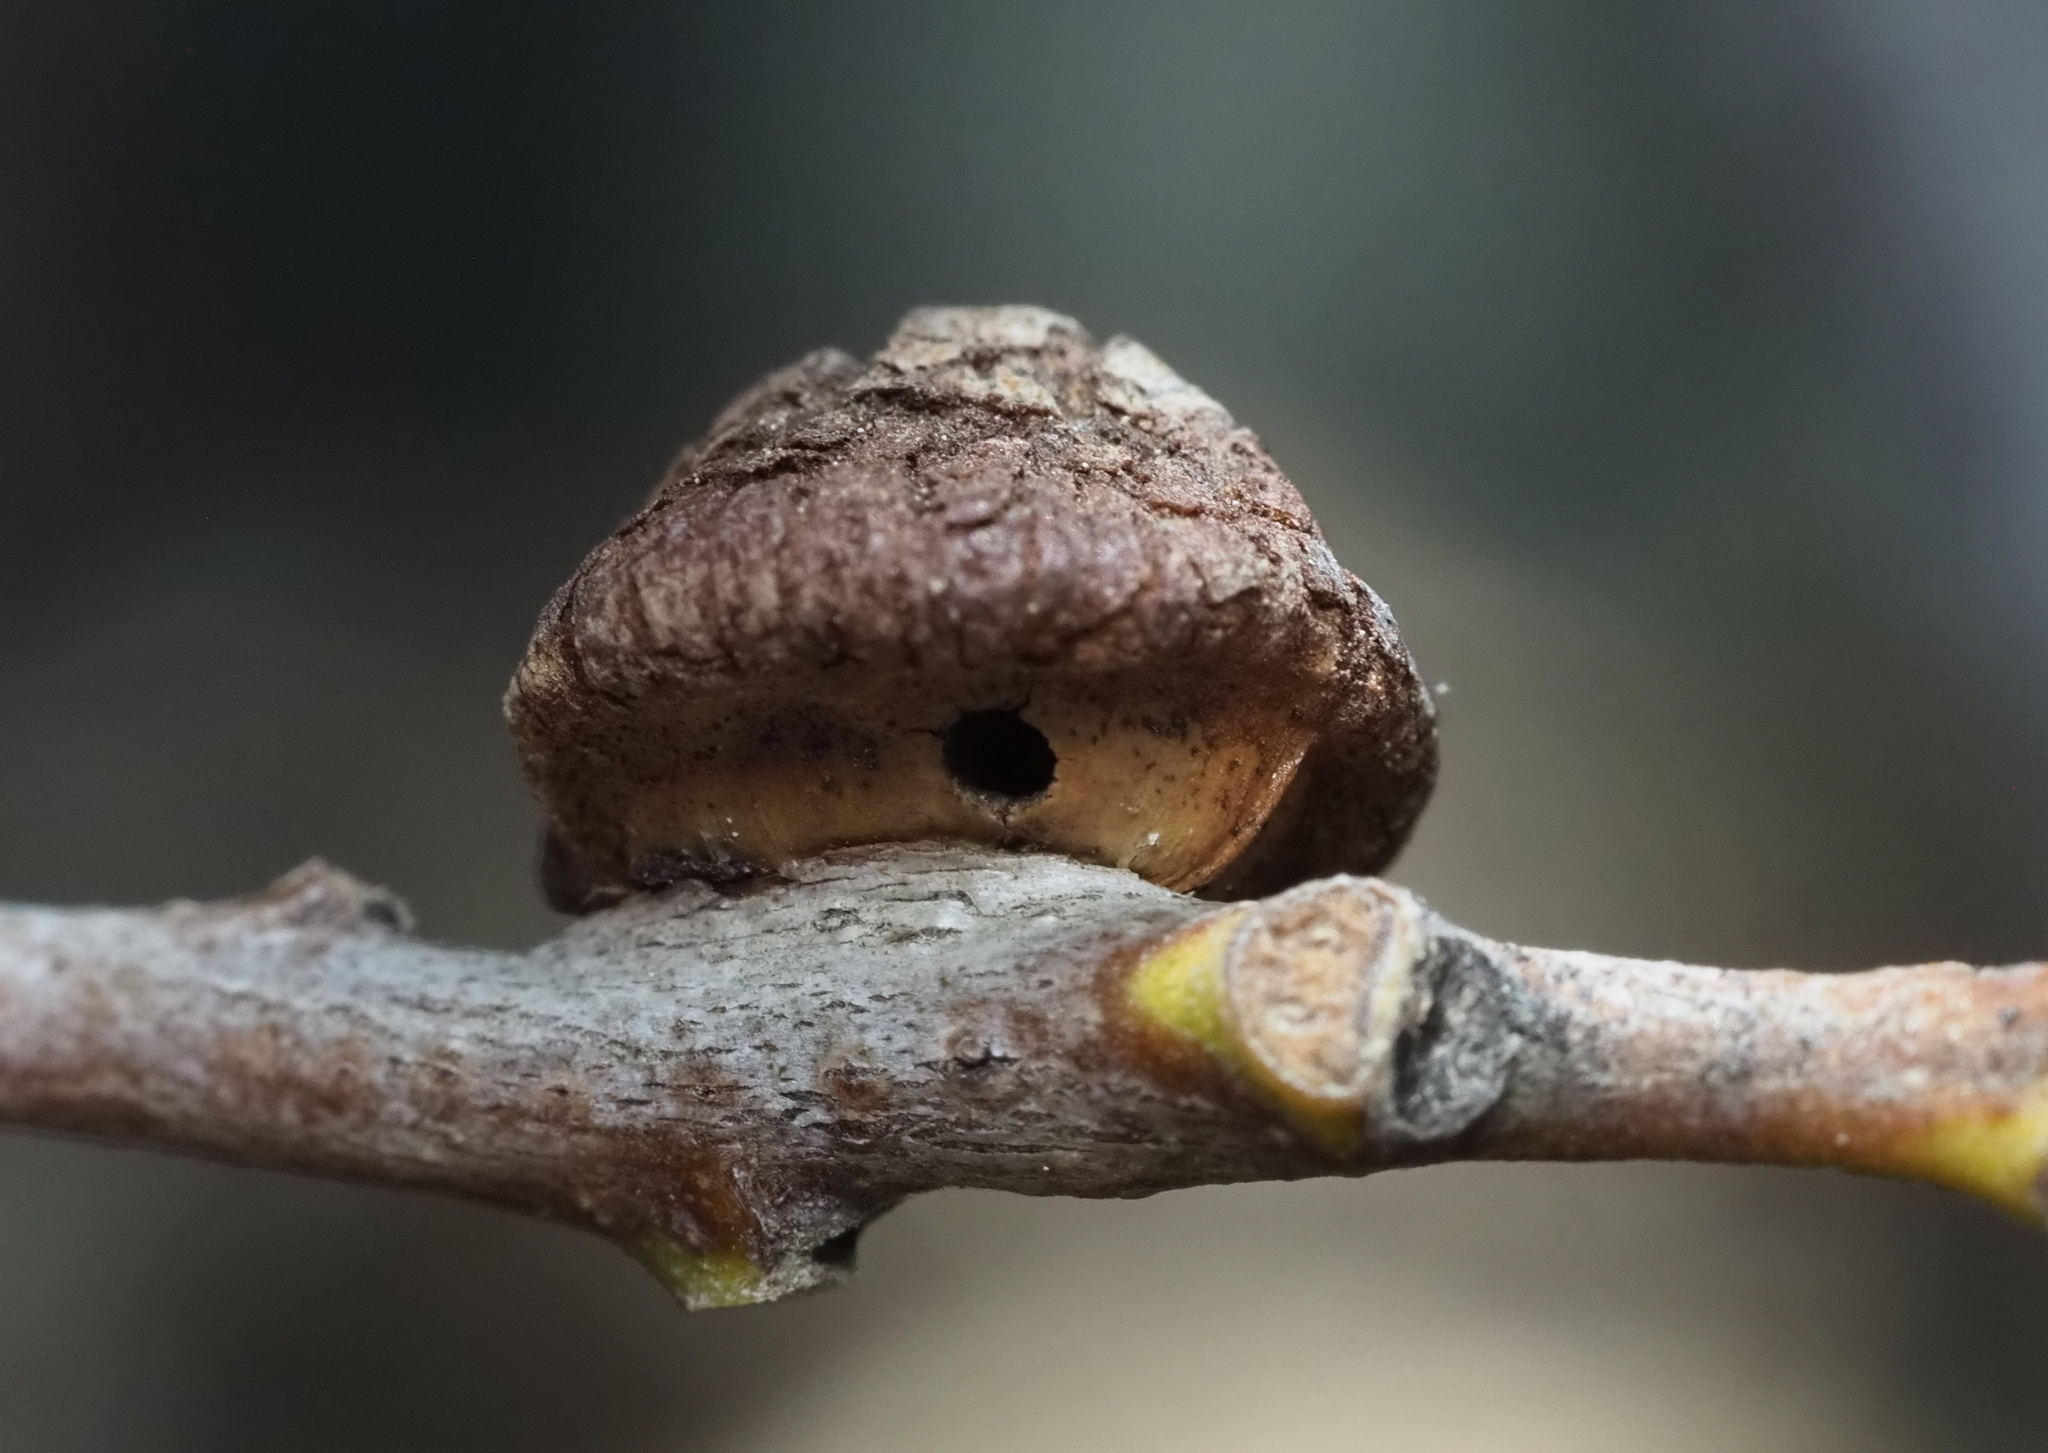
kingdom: Animalia
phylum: Arthropoda
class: Insecta
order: Hymenoptera
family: Cynipidae
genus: Disholandricus
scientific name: Disholandricus
